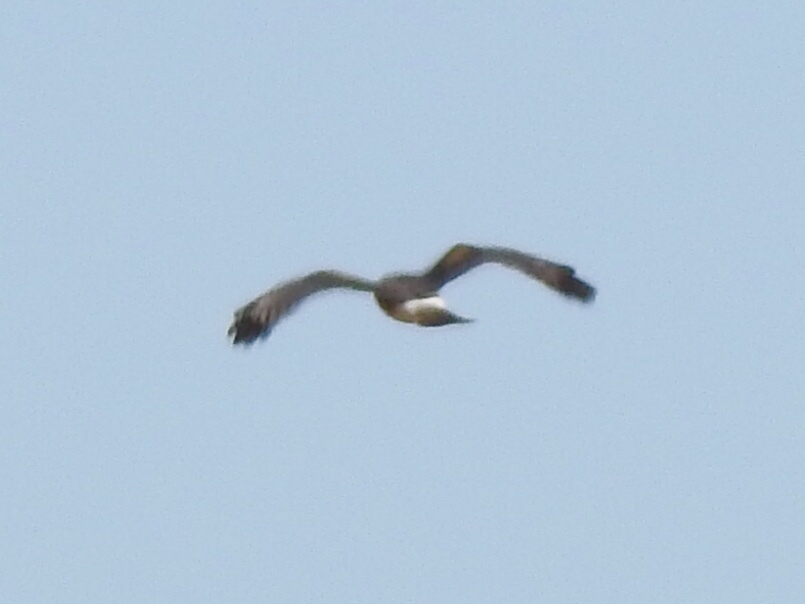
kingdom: Animalia
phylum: Chordata
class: Aves
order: Accipitriformes
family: Accipitridae
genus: Circus
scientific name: Circus cyaneus
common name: Hen harrier
